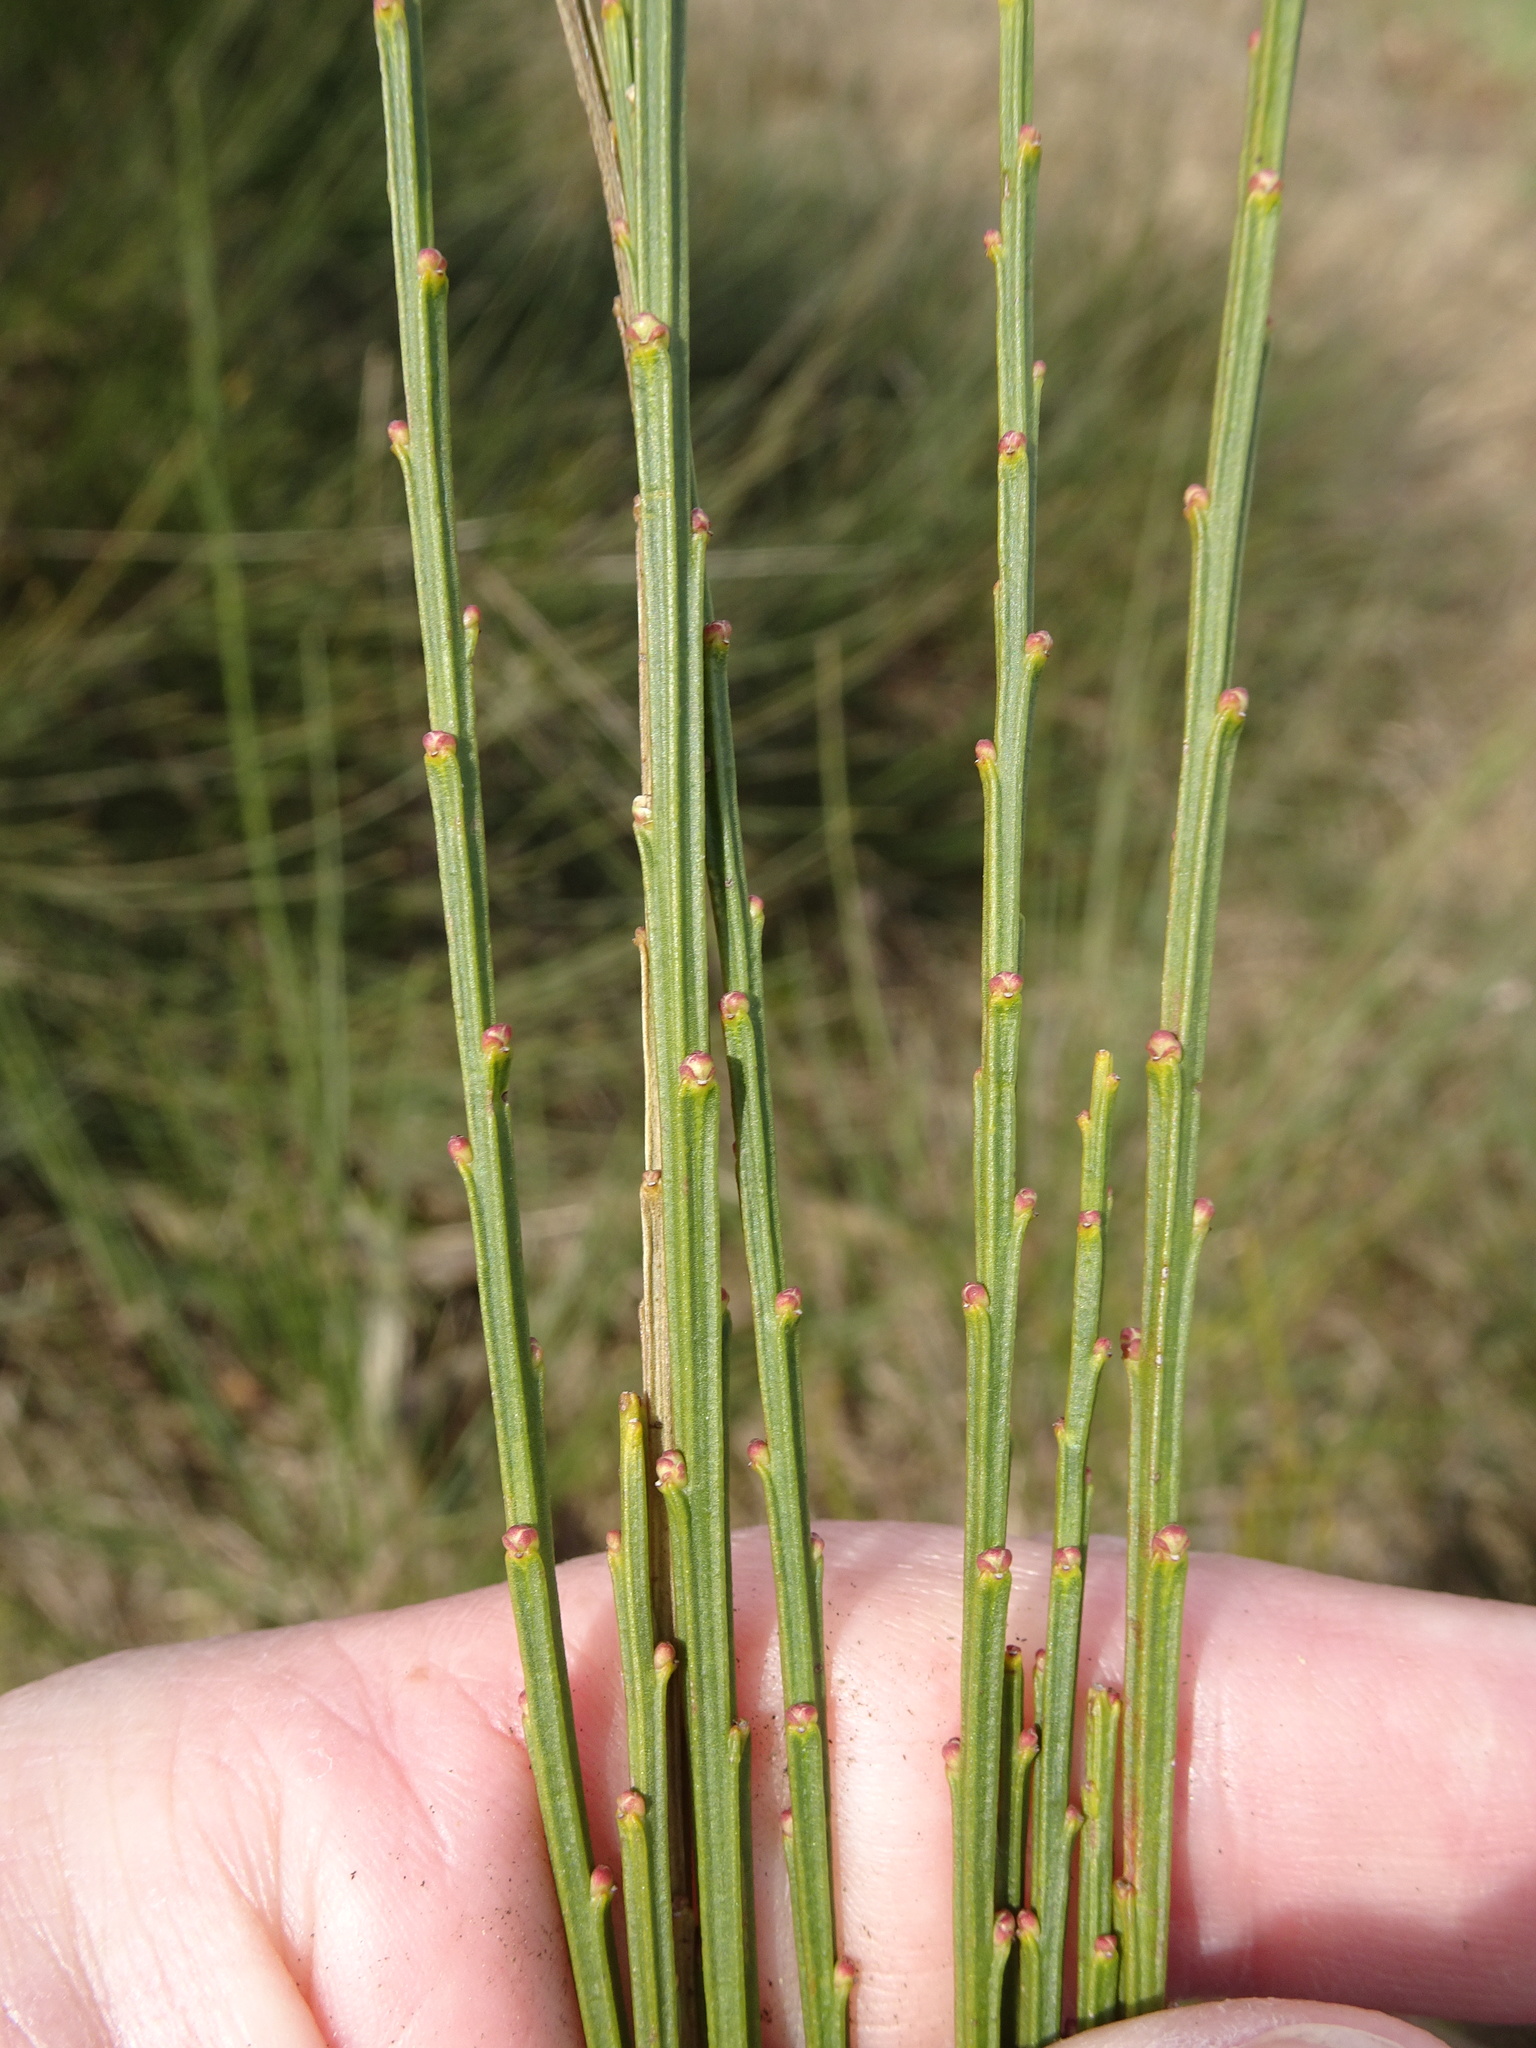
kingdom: Plantae
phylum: Tracheophyta
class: Magnoliopsida
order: Fabales
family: Fabaceae
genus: Cytisus
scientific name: Cytisus scoparius
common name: Scotch broom
